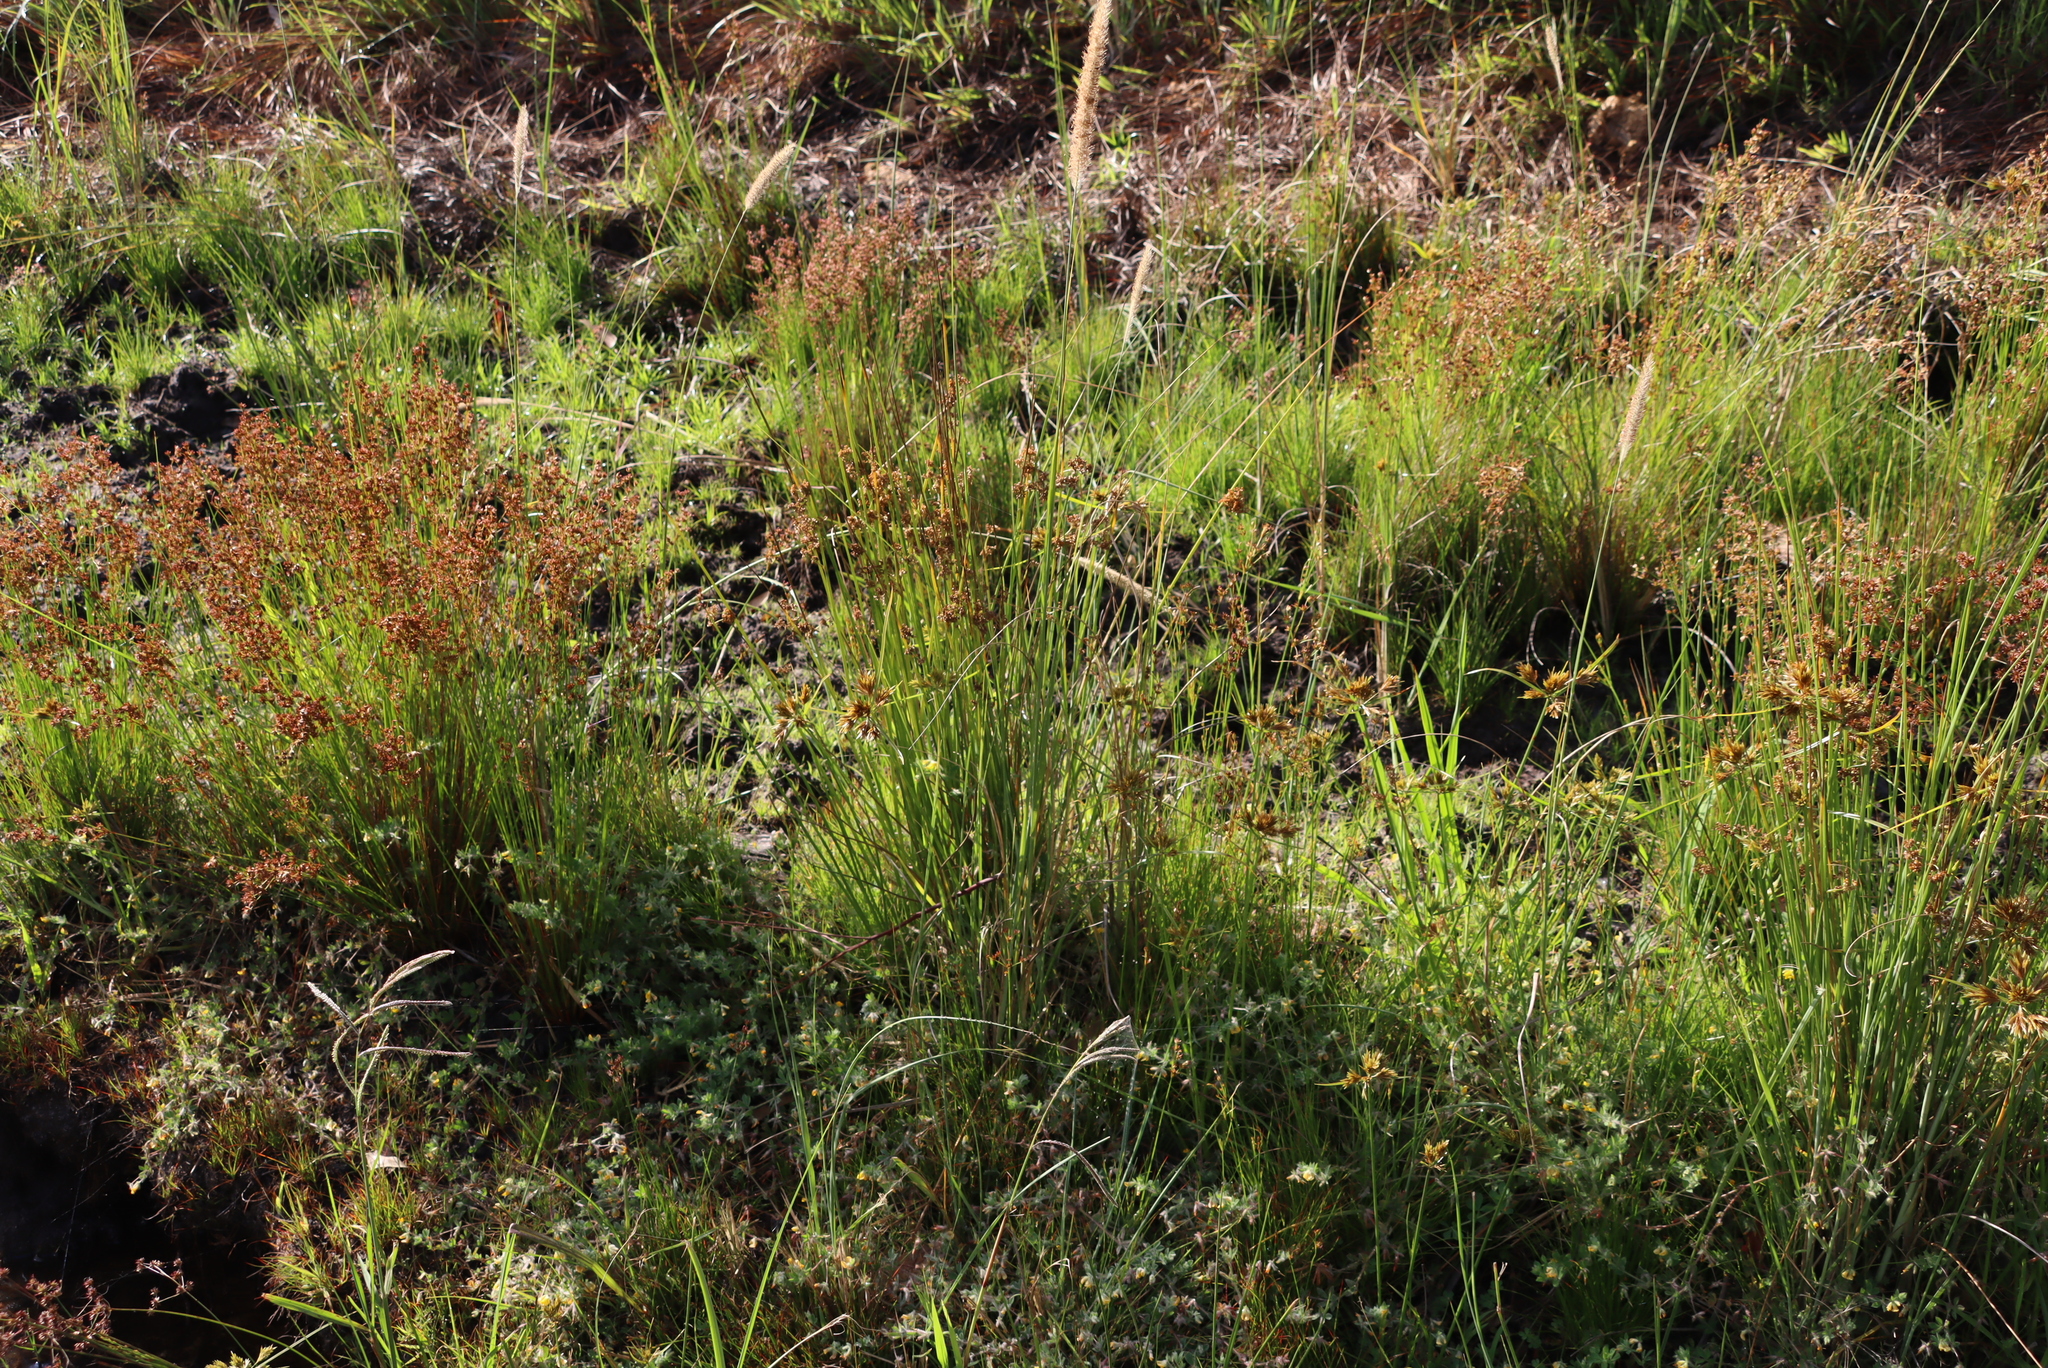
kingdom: Plantae
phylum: Tracheophyta
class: Liliopsida
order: Poales
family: Juncaceae
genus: Juncus
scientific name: Juncus capensis
